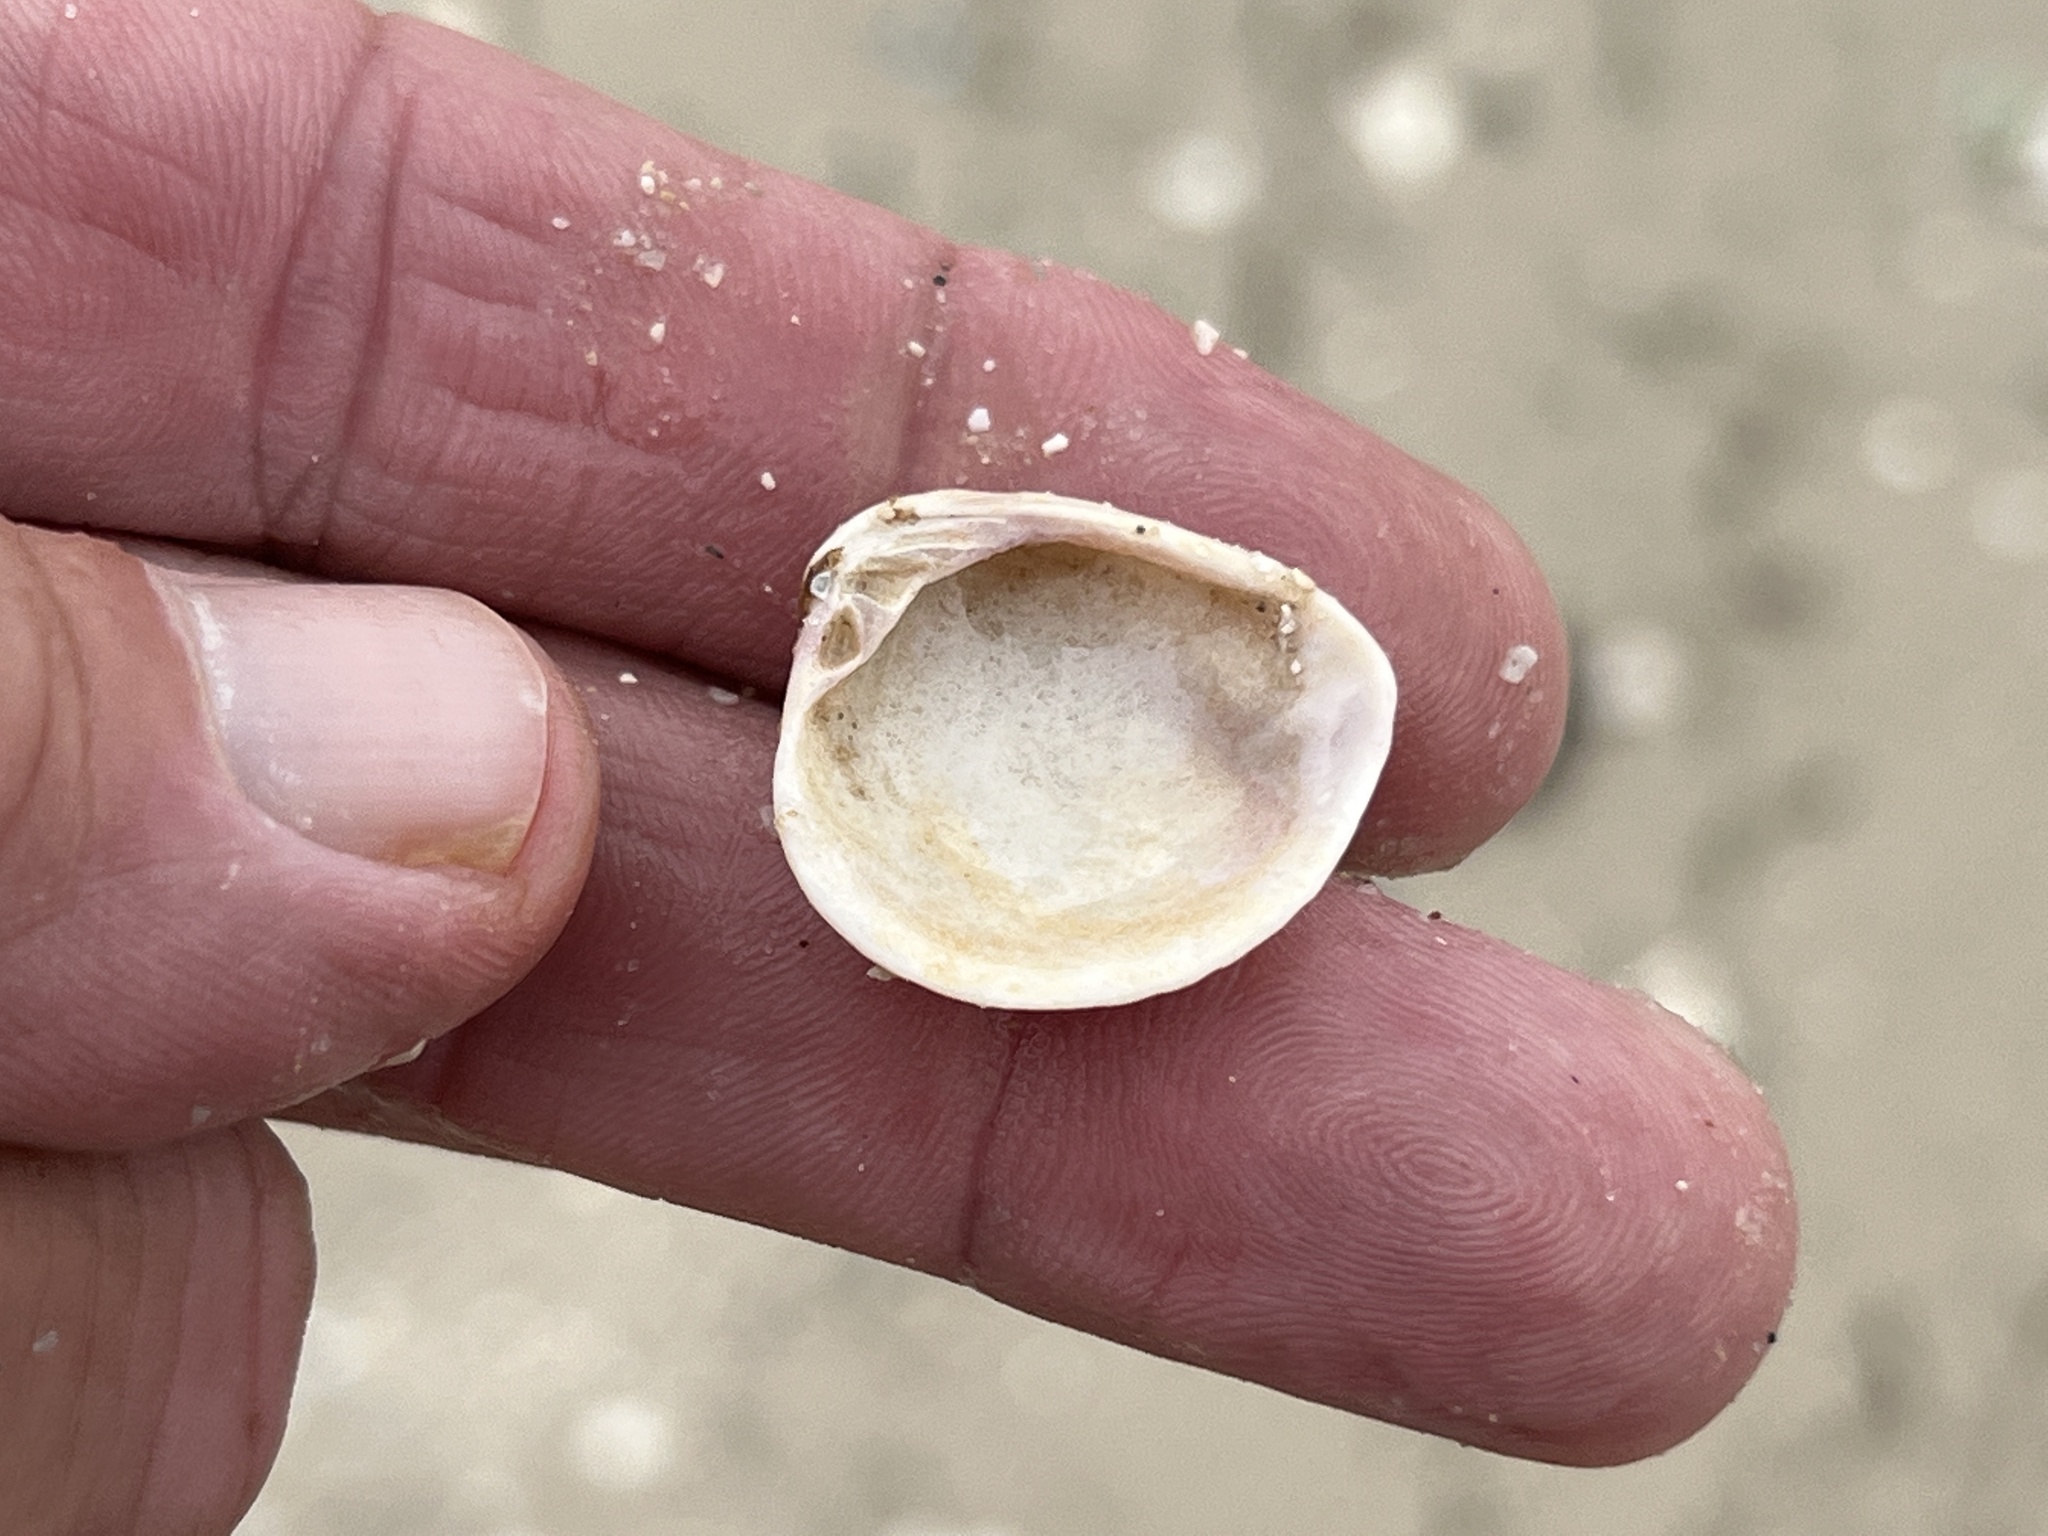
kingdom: Animalia
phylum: Mollusca
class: Bivalvia
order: Venerida
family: Veneridae
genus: Chione
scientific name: Chione elevata
